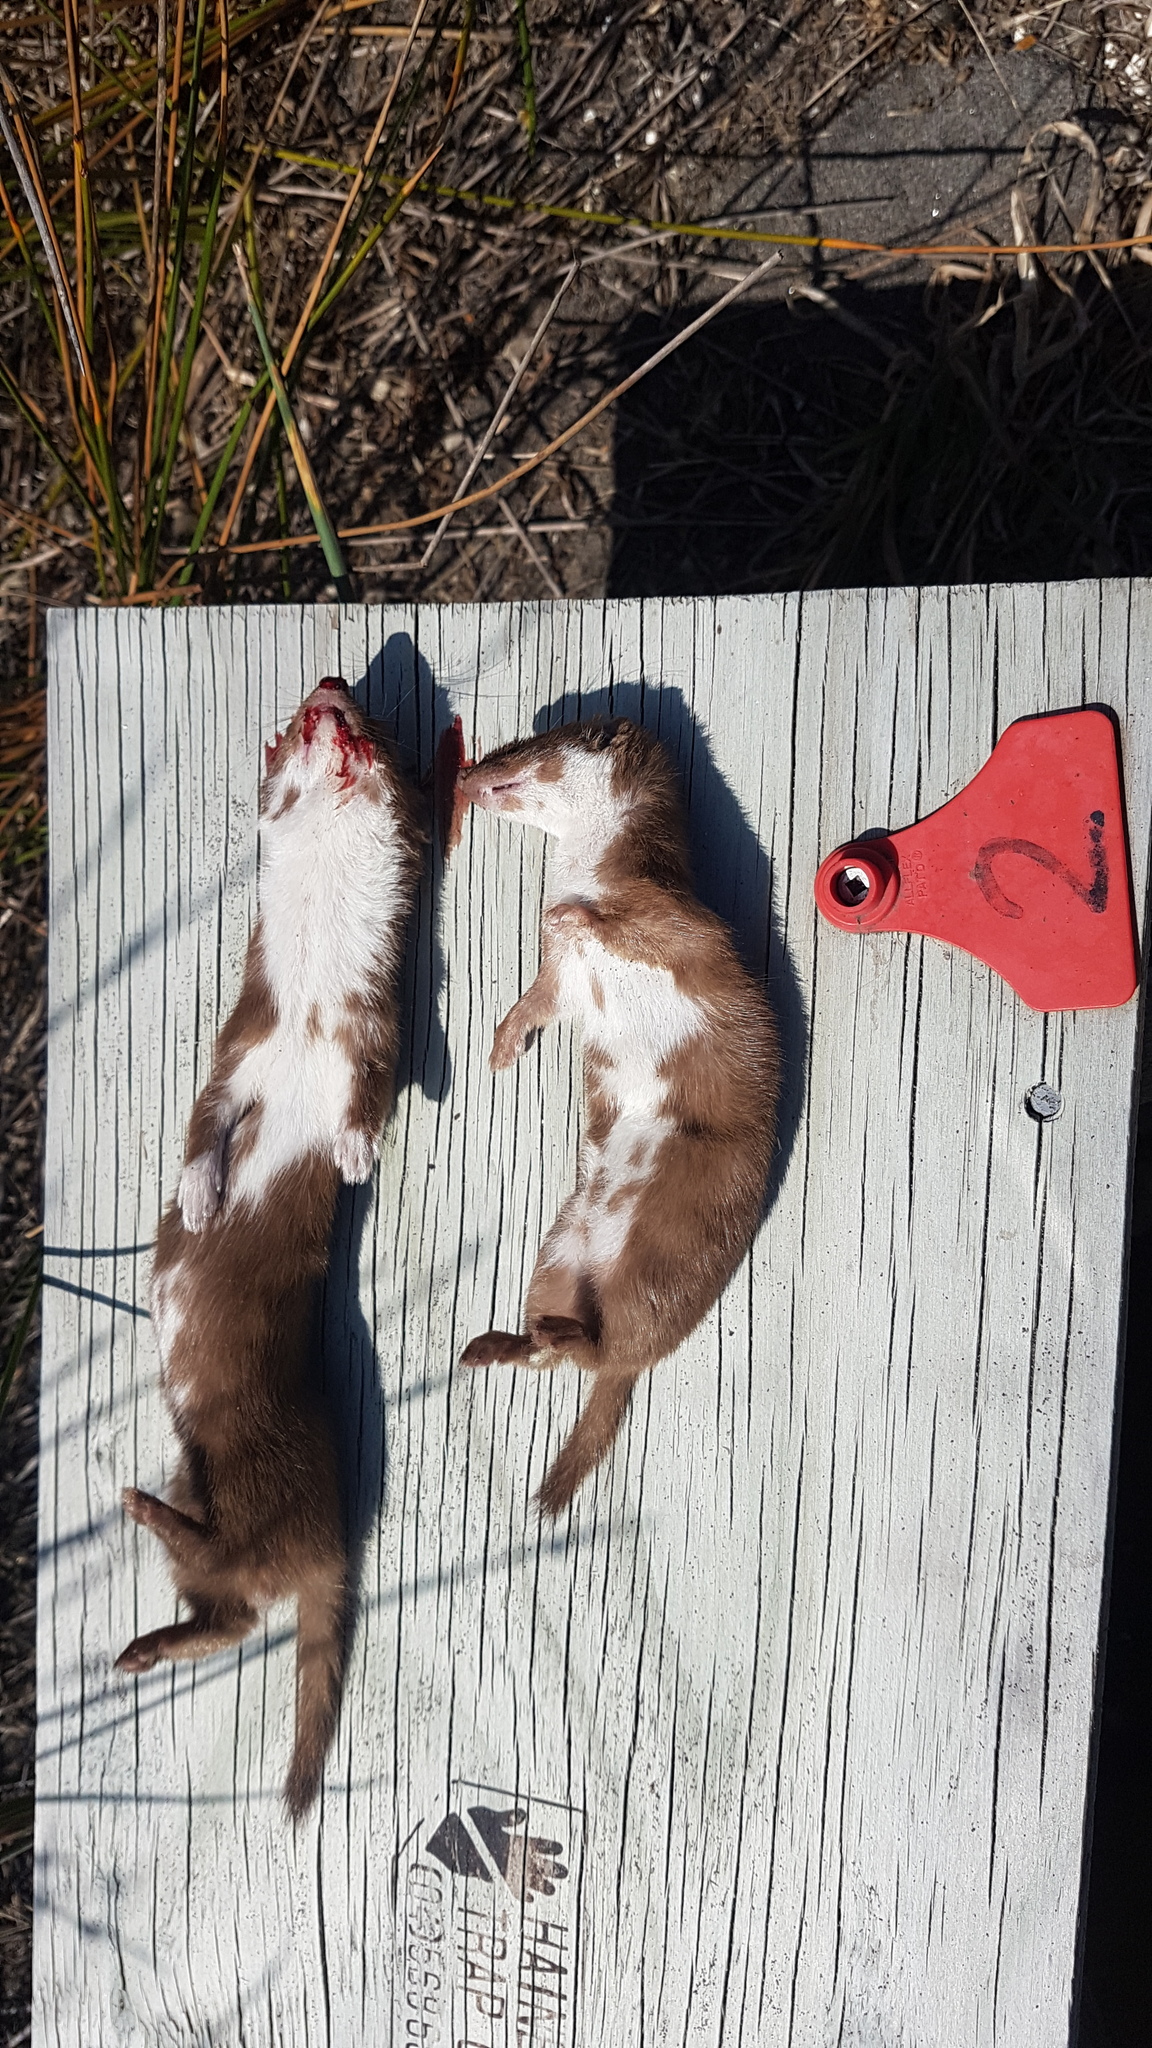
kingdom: Animalia
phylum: Chordata
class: Mammalia
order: Carnivora
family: Mustelidae
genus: Mustela
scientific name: Mustela nivalis
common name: Least weasel
